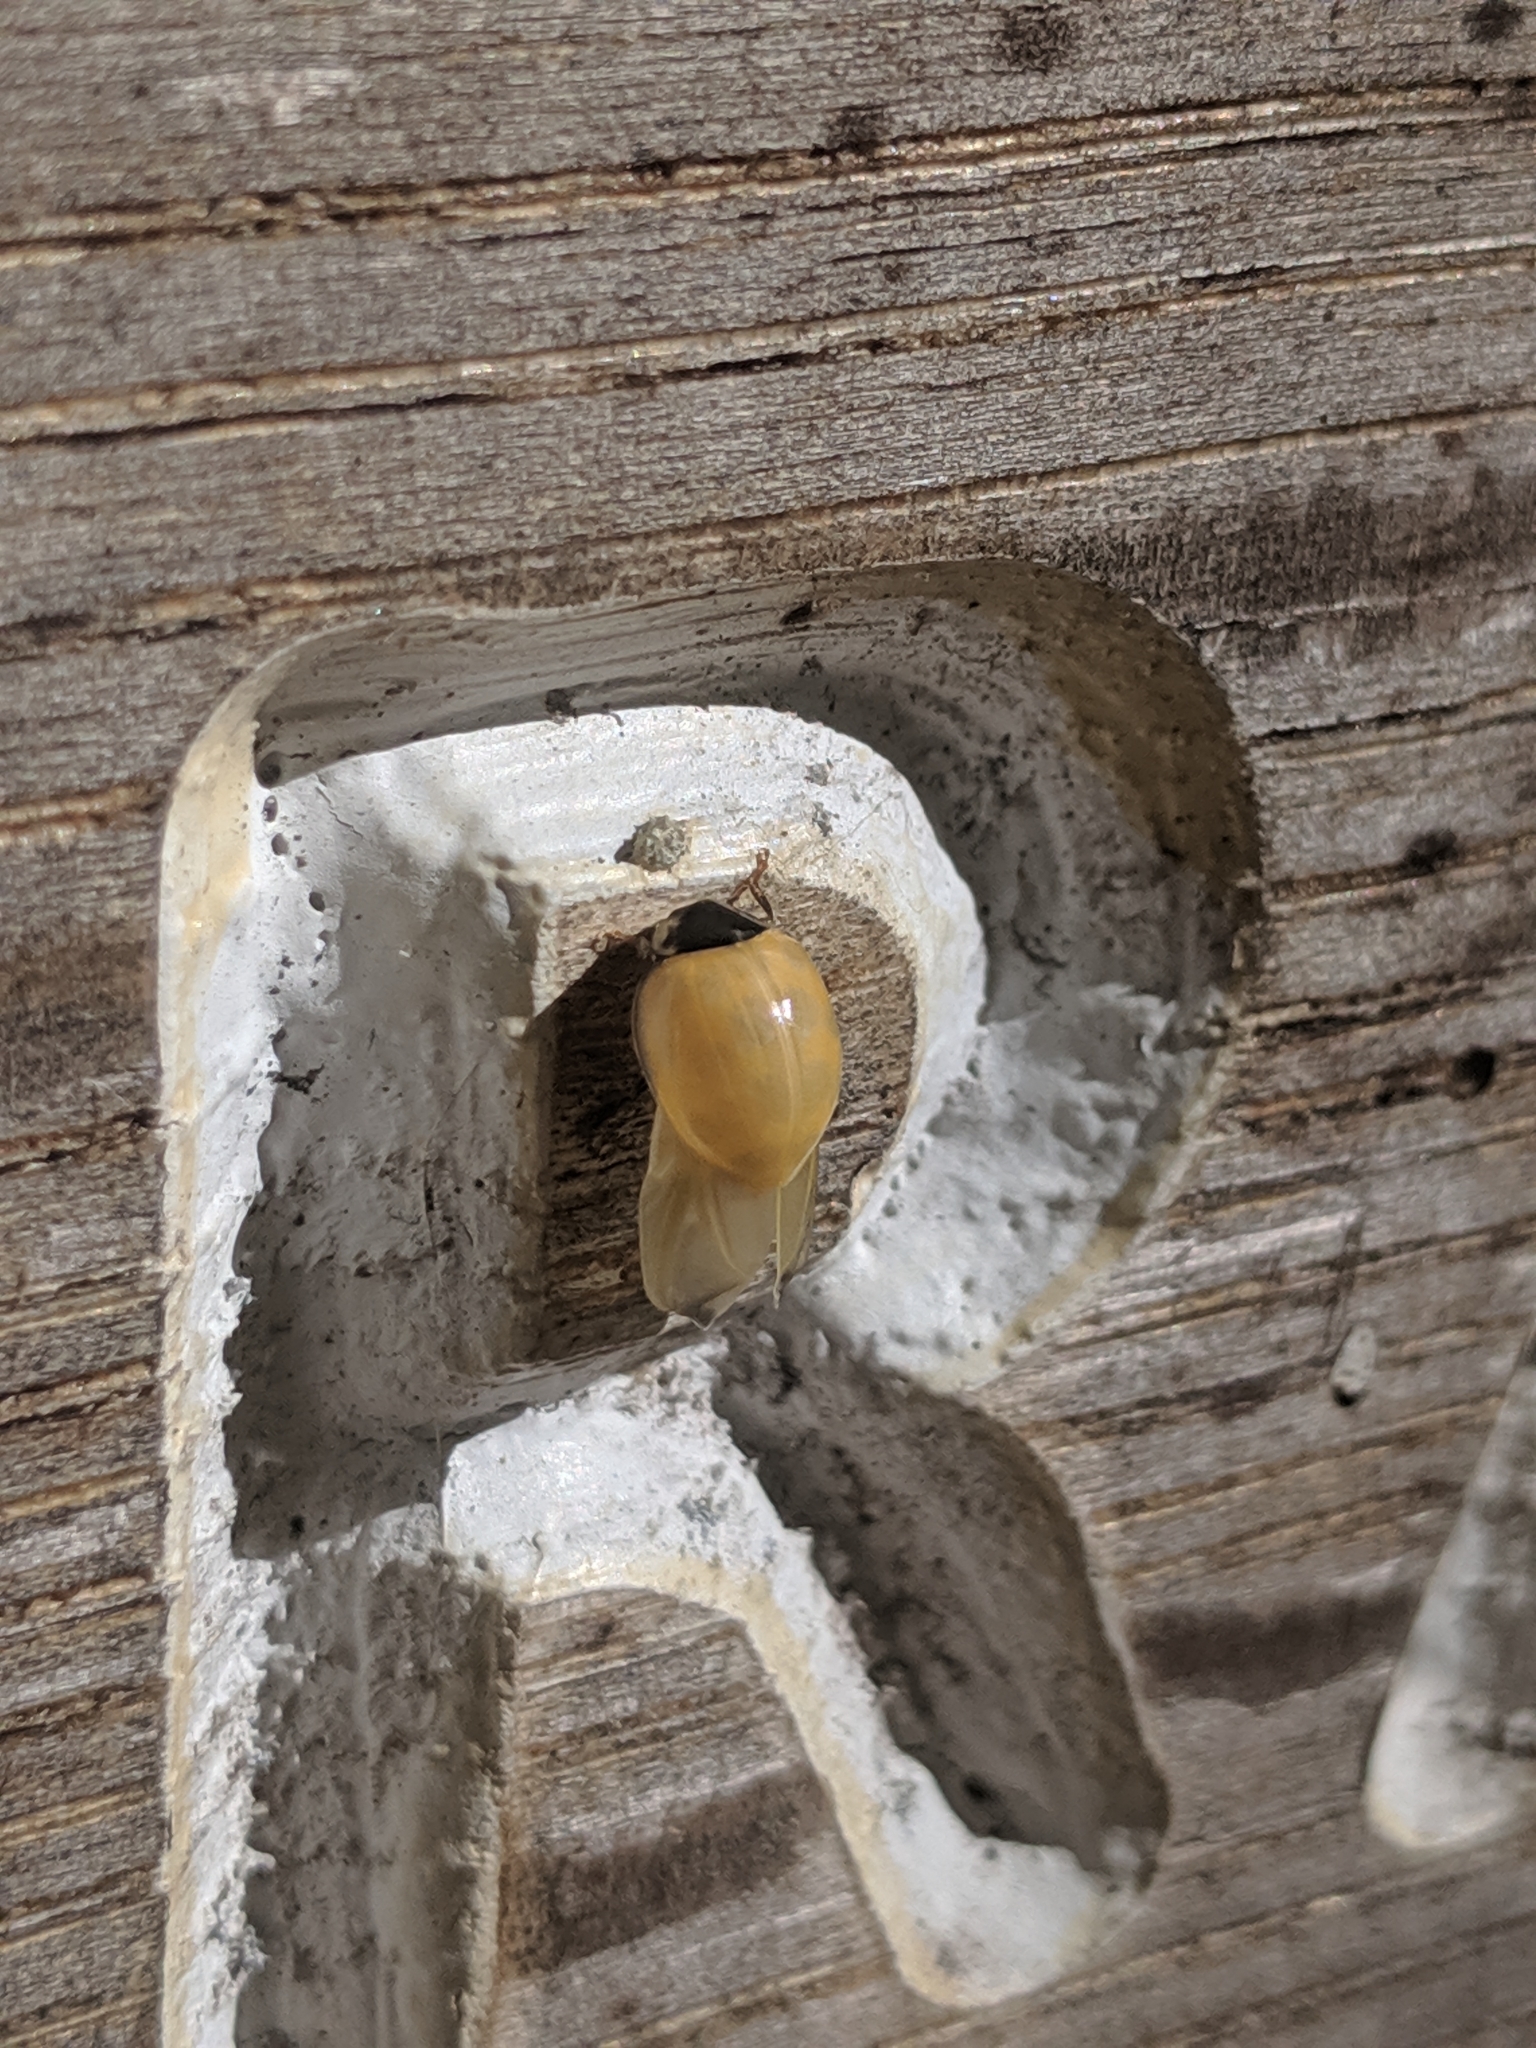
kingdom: Animalia
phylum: Arthropoda
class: Insecta
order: Coleoptera
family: Coccinellidae
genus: Harmonia
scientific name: Harmonia axyridis
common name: Harlequin ladybird
